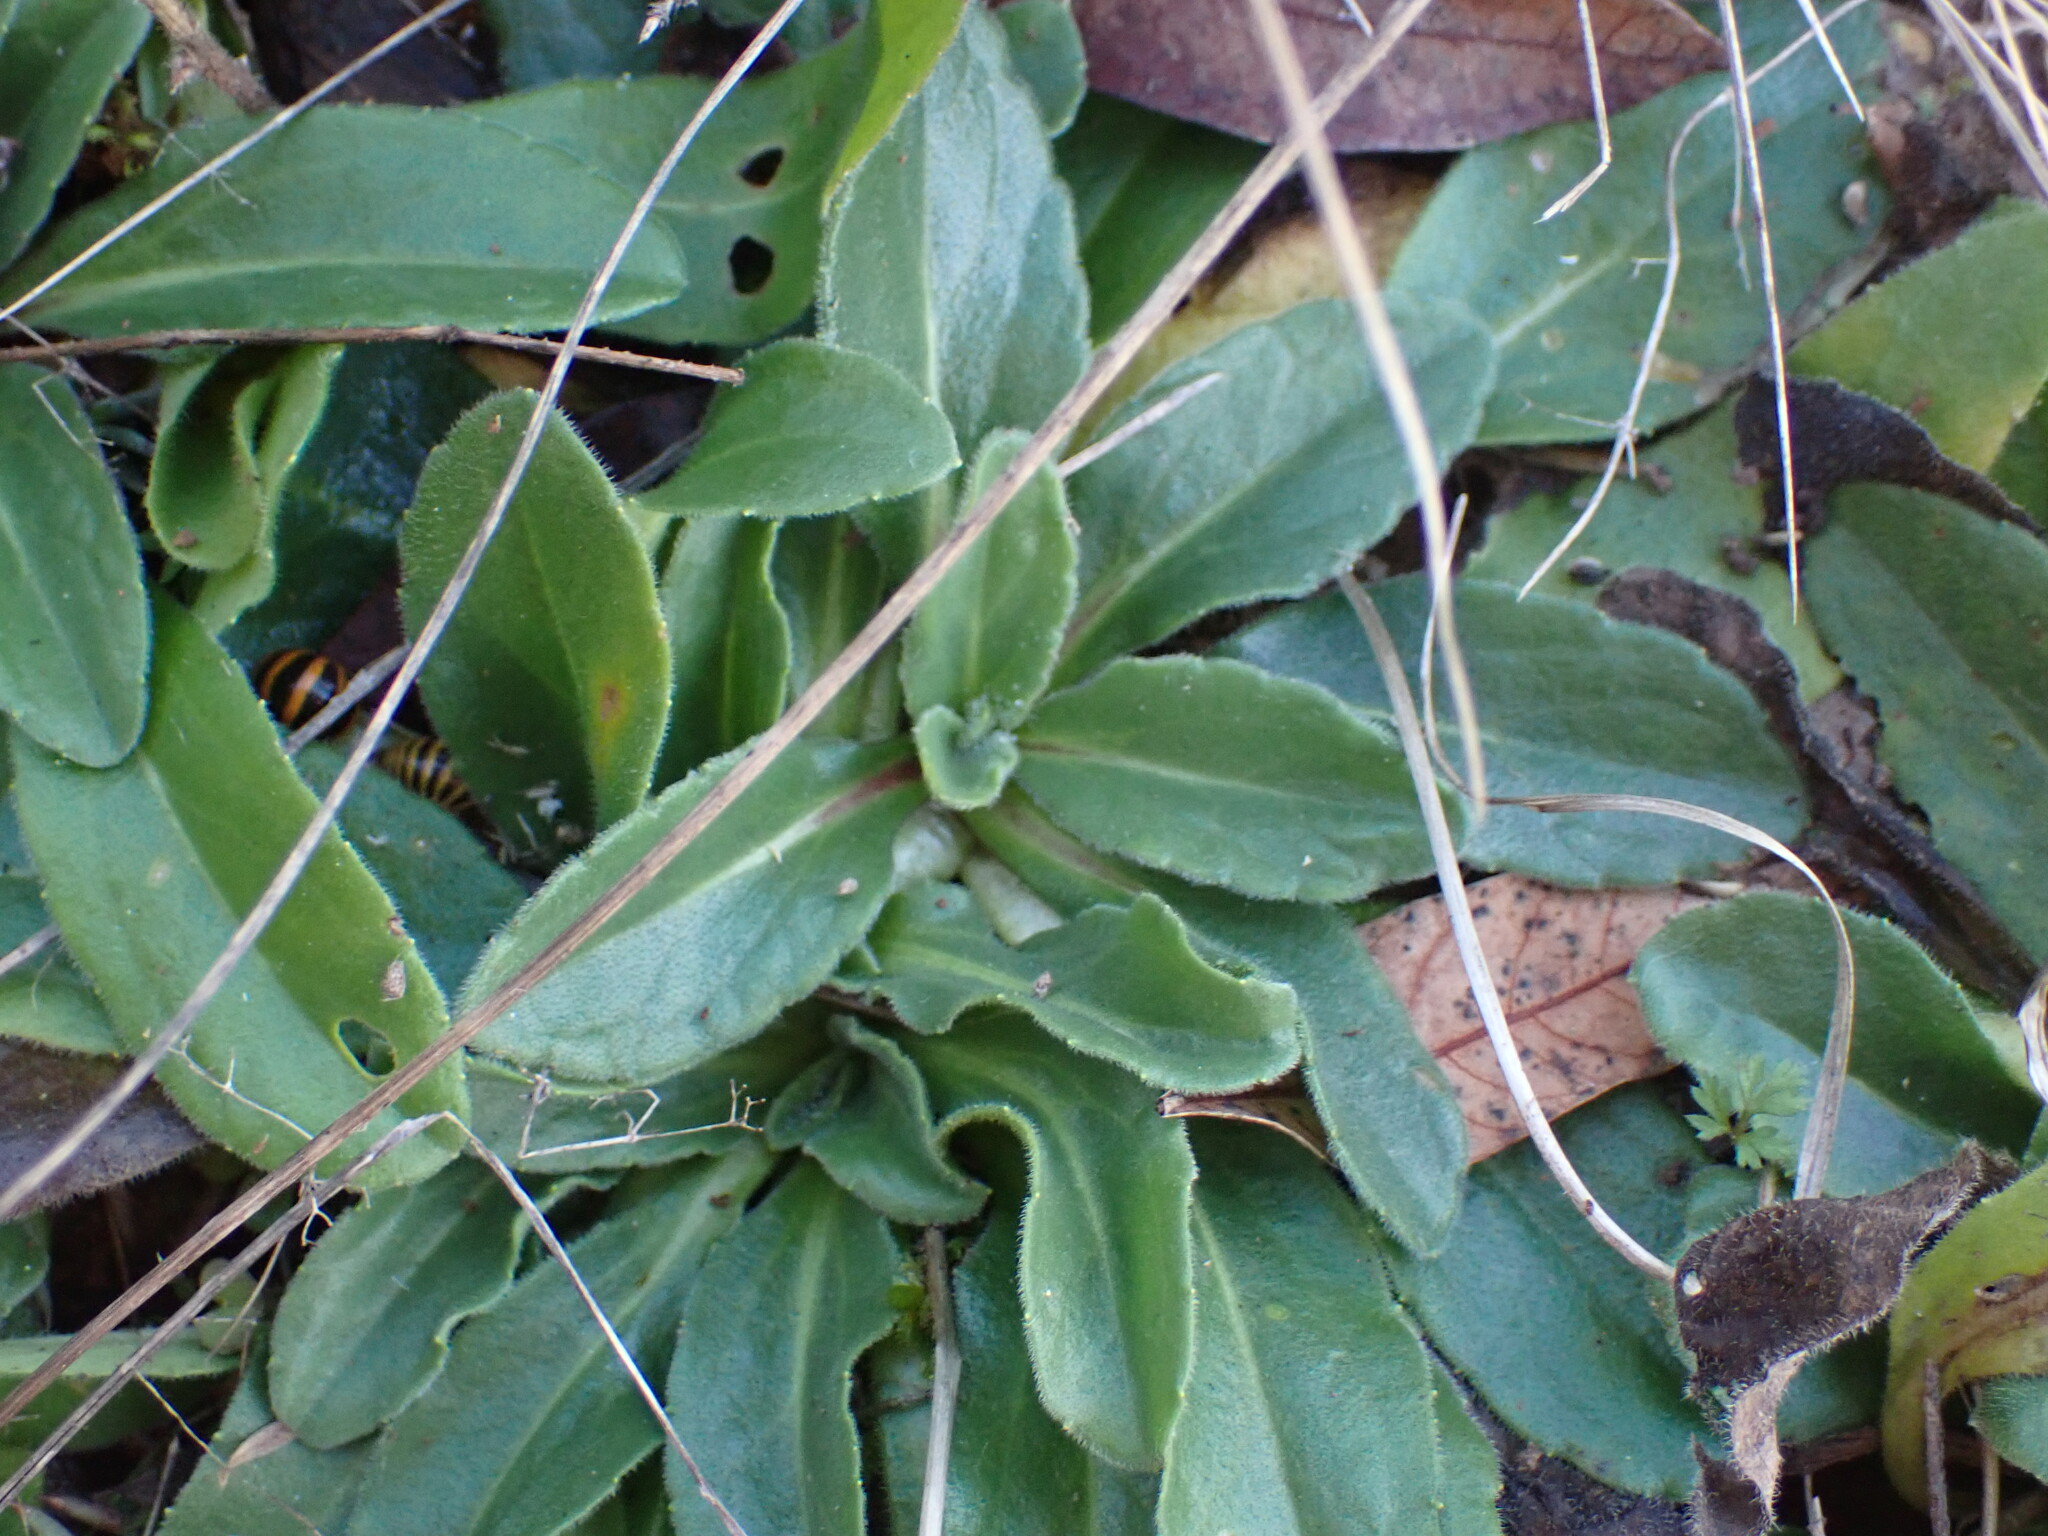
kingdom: Plantae
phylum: Tracheophyta
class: Magnoliopsida
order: Asterales
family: Asteraceae
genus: Bellis
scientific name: Bellis sylvestris
